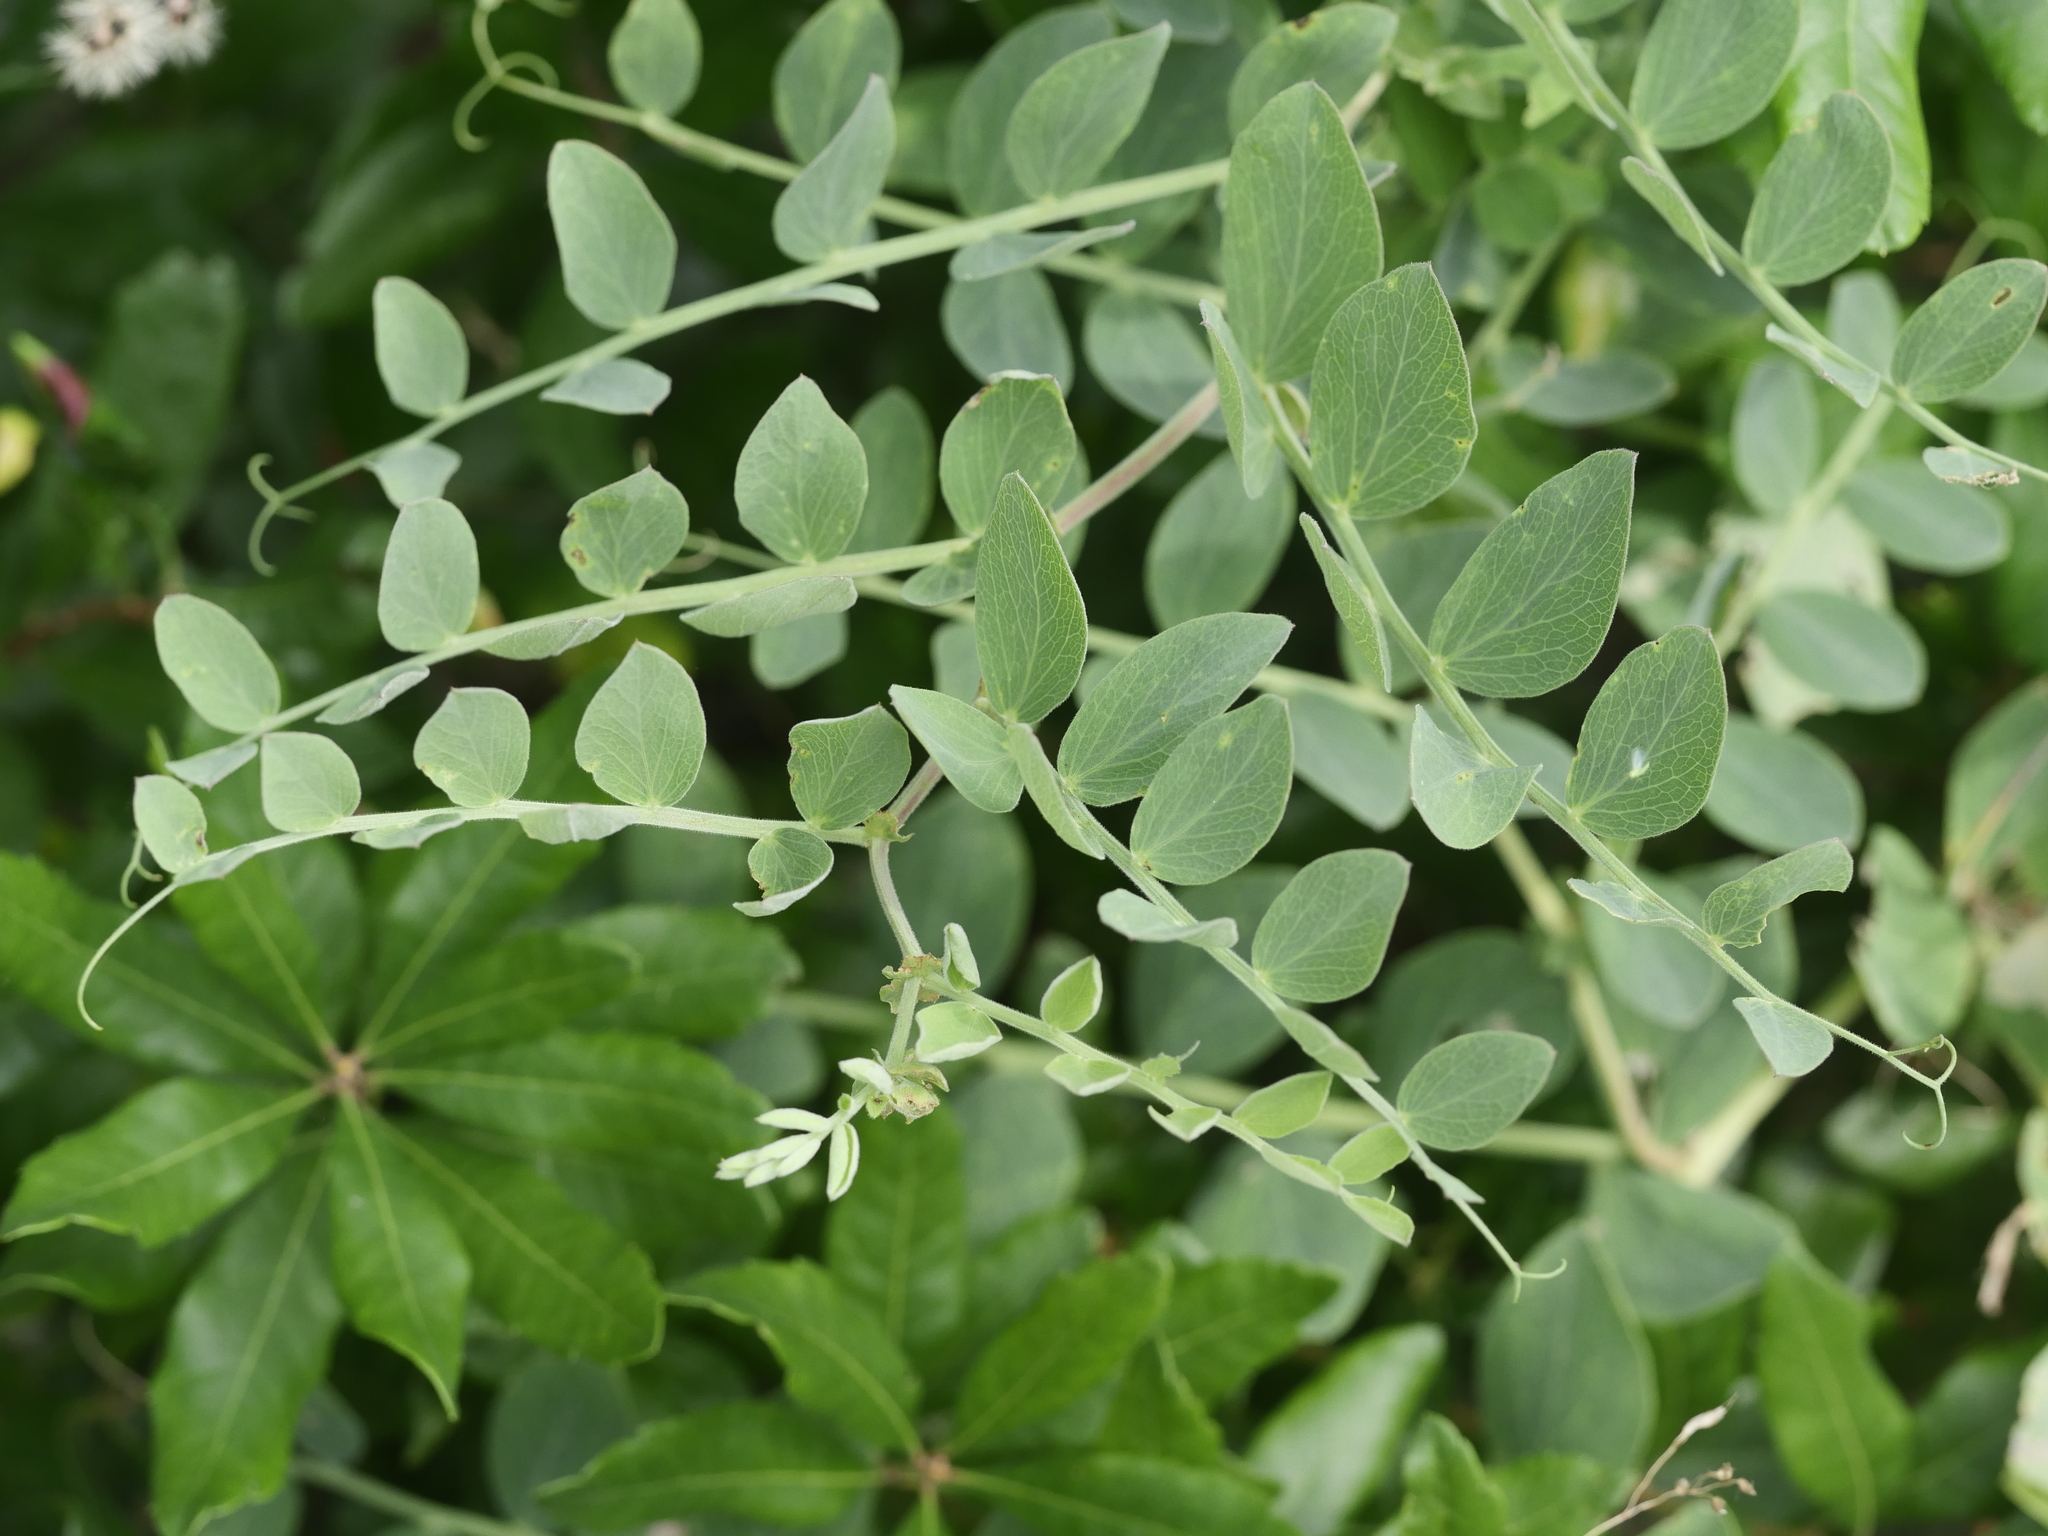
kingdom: Plantae
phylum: Tracheophyta
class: Magnoliopsida
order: Fabales
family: Fabaceae
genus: Lathyrus
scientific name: Lathyrus japonicus
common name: Sea pea
